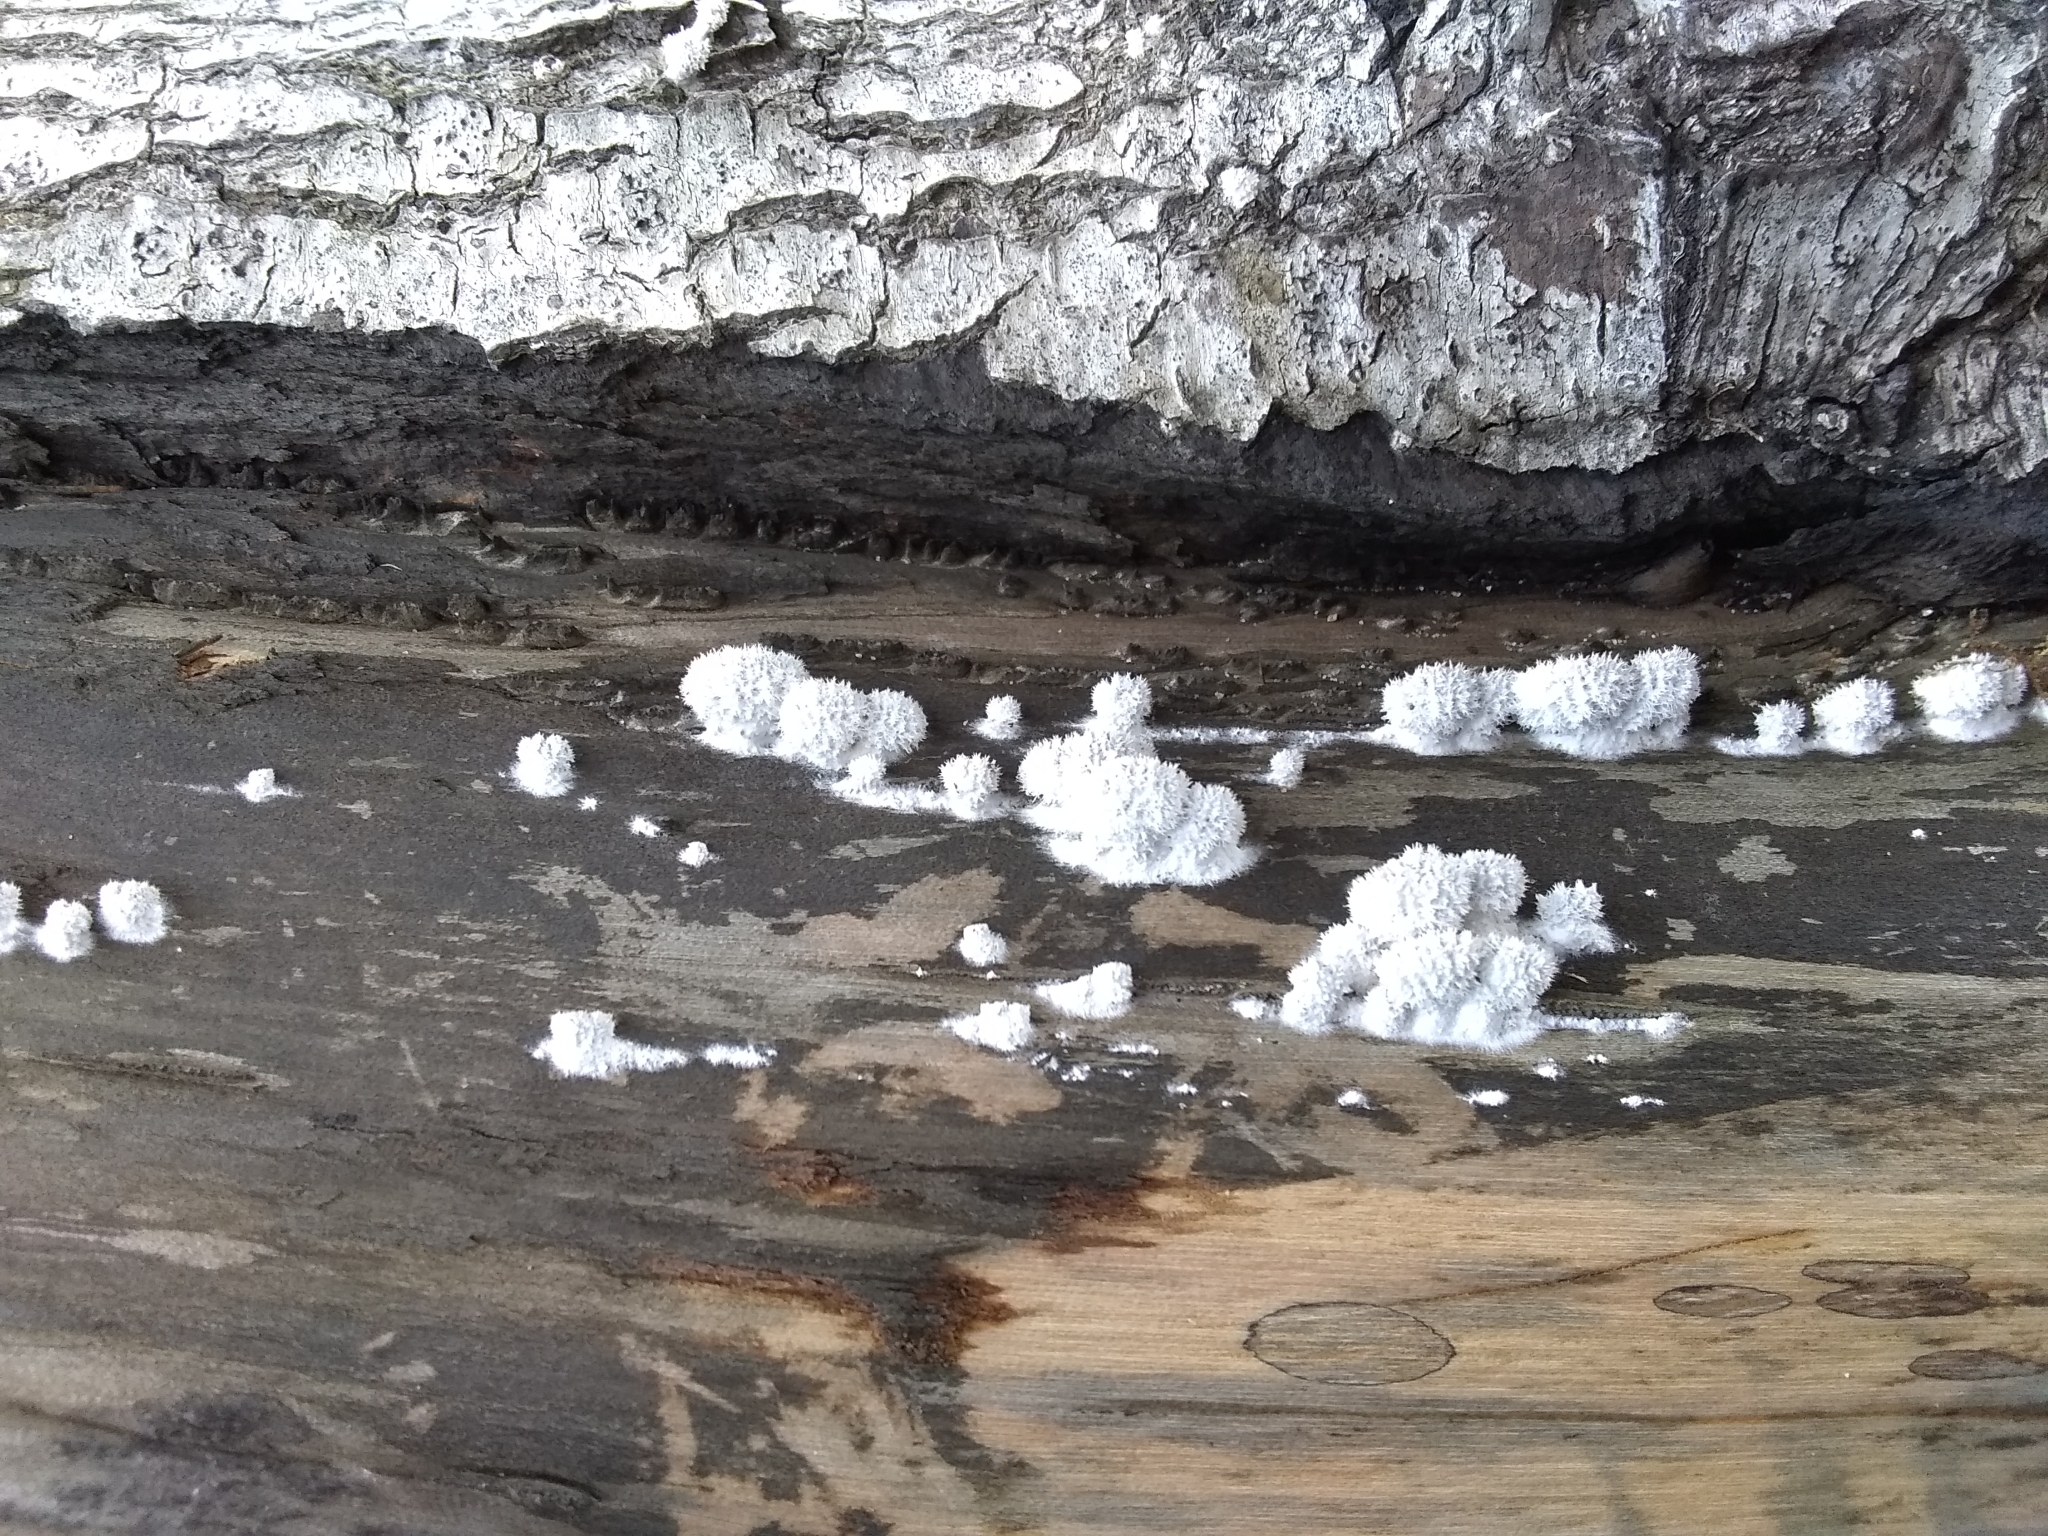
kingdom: Fungi
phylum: Basidiomycota
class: Agaricomycetes
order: Agaricales
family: Schizophyllaceae
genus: Schizophyllum
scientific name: Schizophyllum commune
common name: Common porecrust
